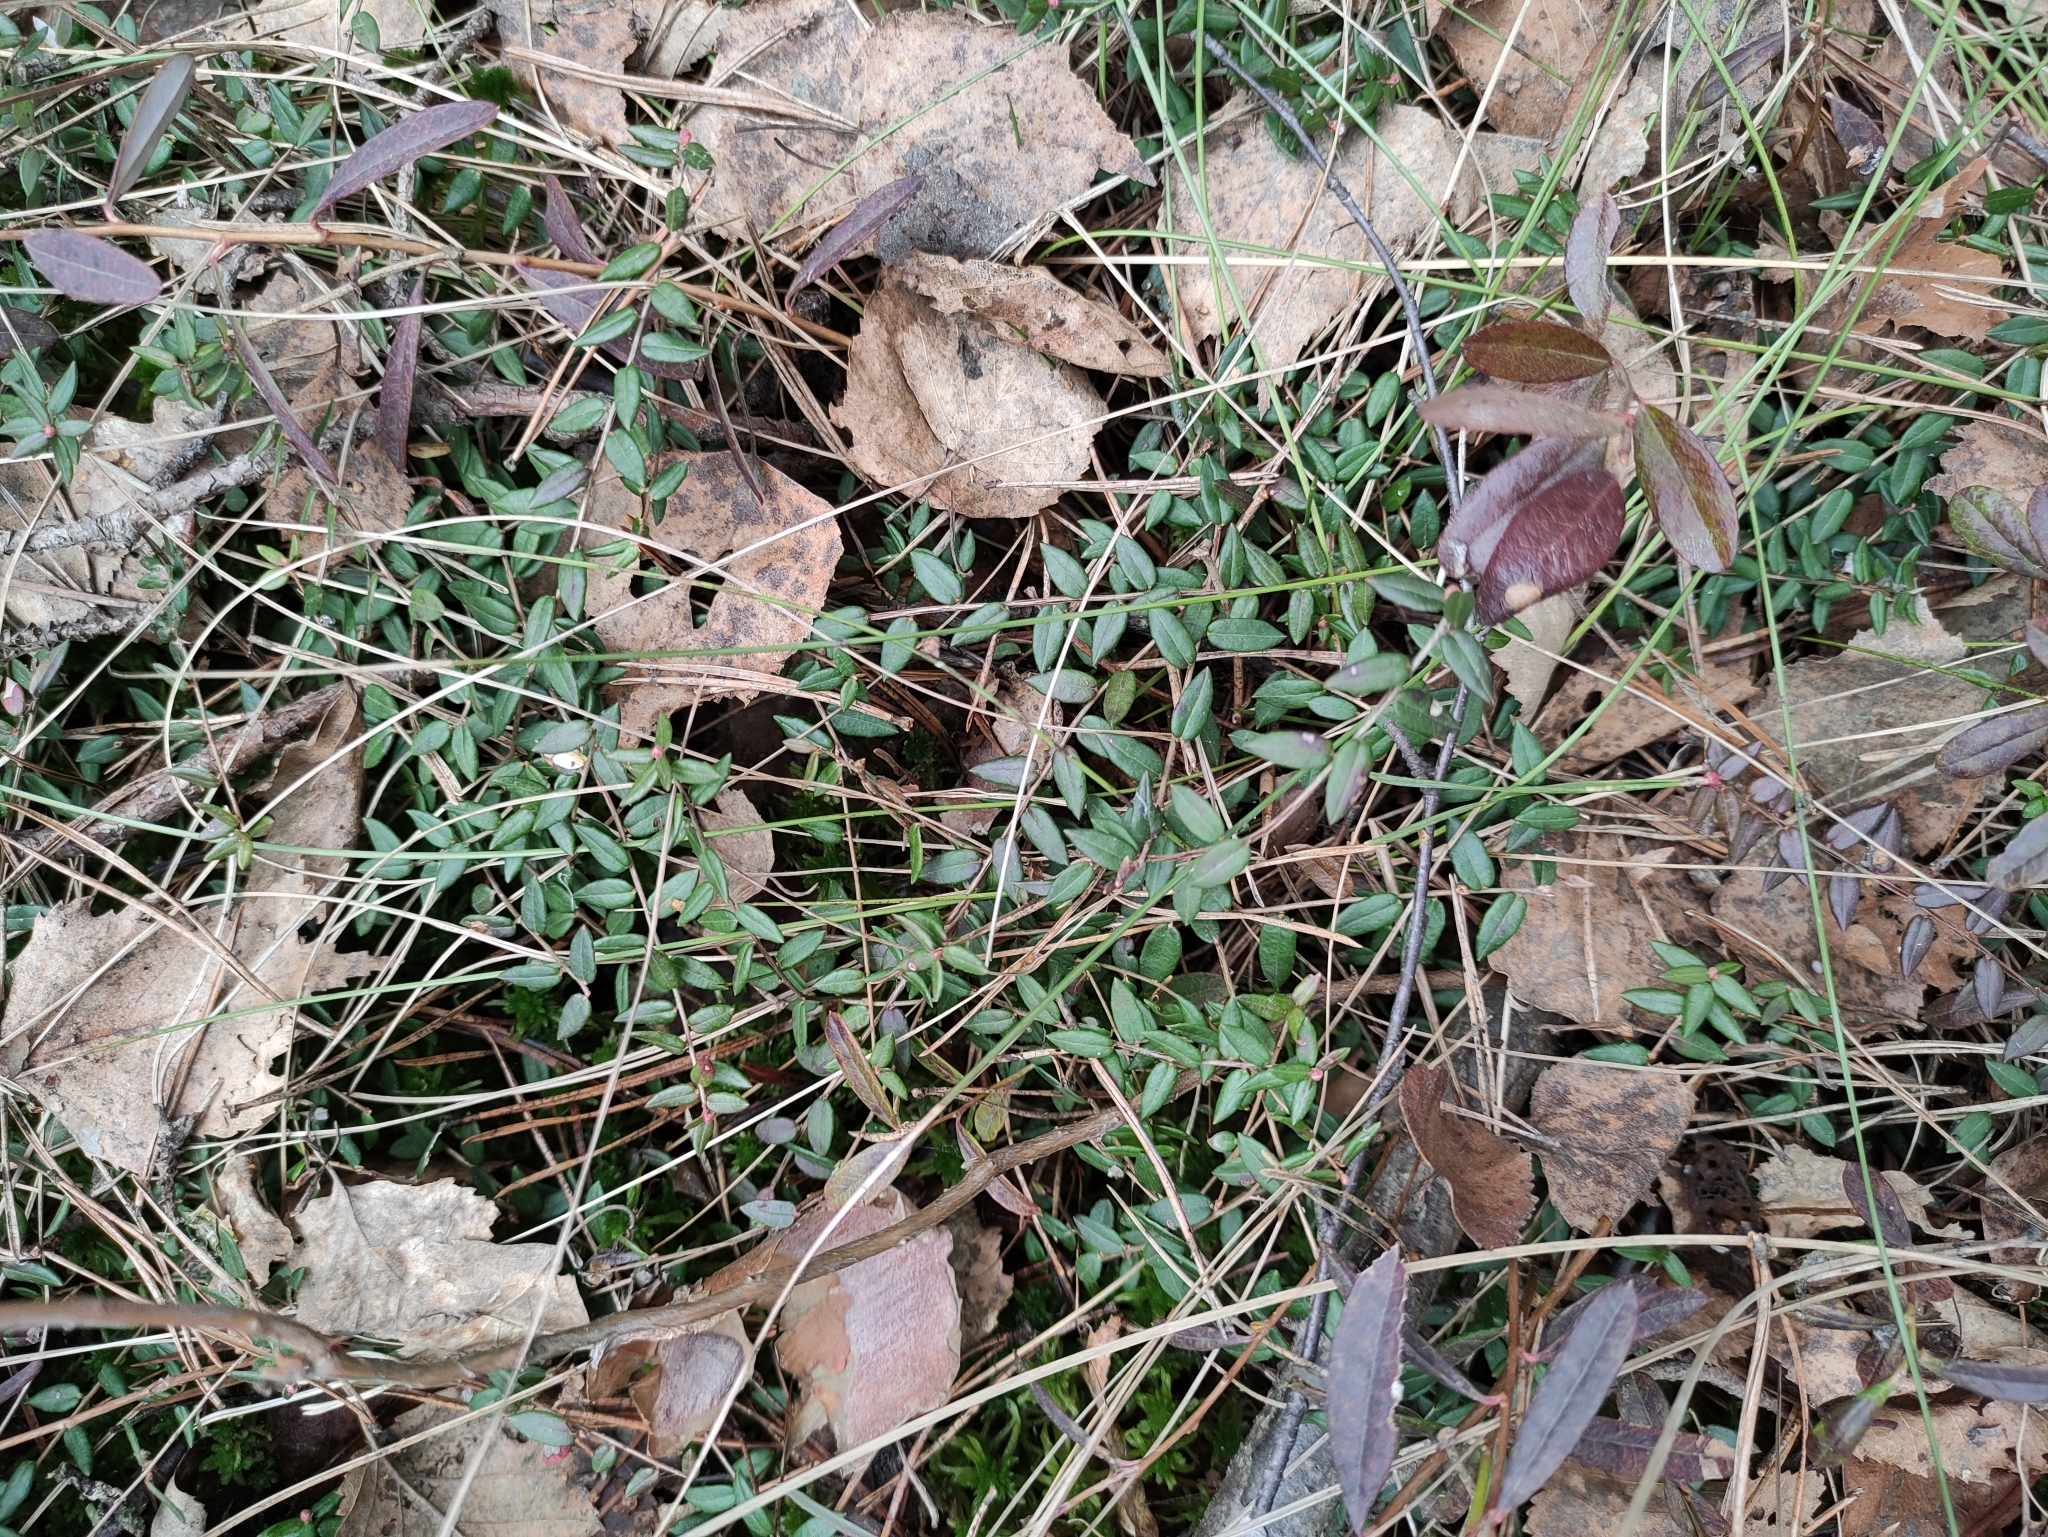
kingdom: Plantae
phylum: Tracheophyta
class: Magnoliopsida
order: Ericales
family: Ericaceae
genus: Vaccinium
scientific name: Vaccinium oxycoccos
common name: Cranberry
